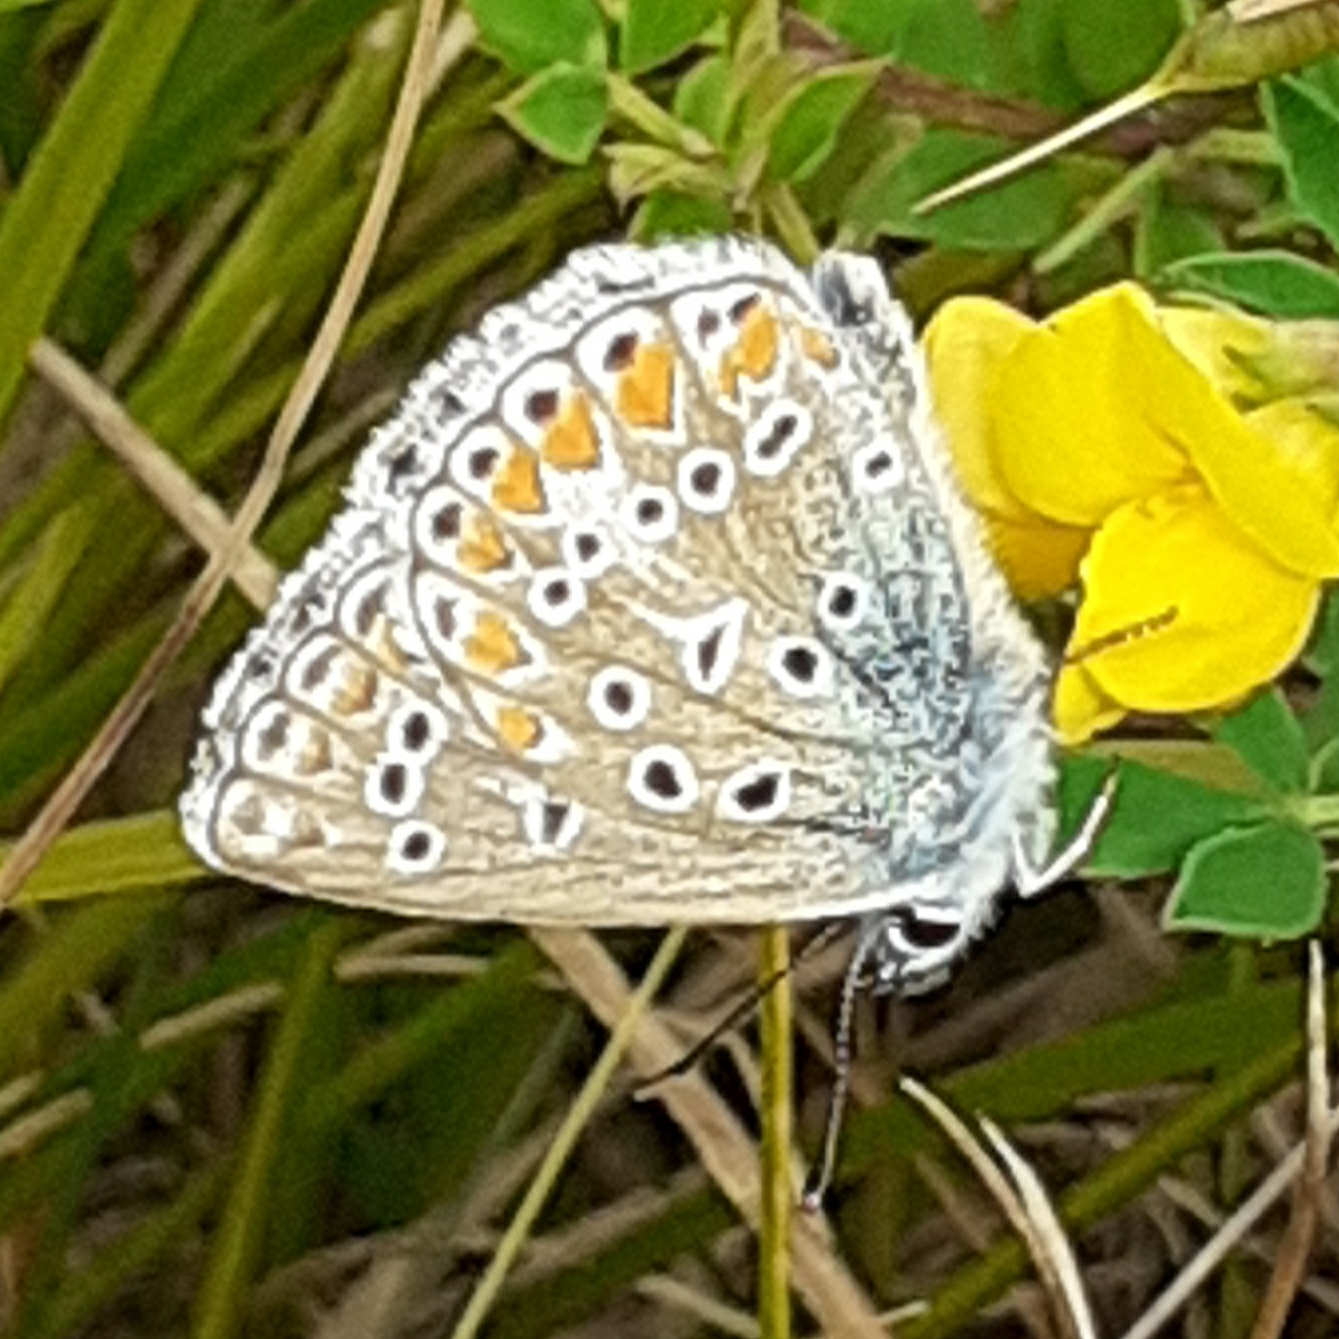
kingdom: Animalia
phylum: Arthropoda
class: Insecta
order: Lepidoptera
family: Lycaenidae
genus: Polyommatus
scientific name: Polyommatus icarus
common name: Common blue
